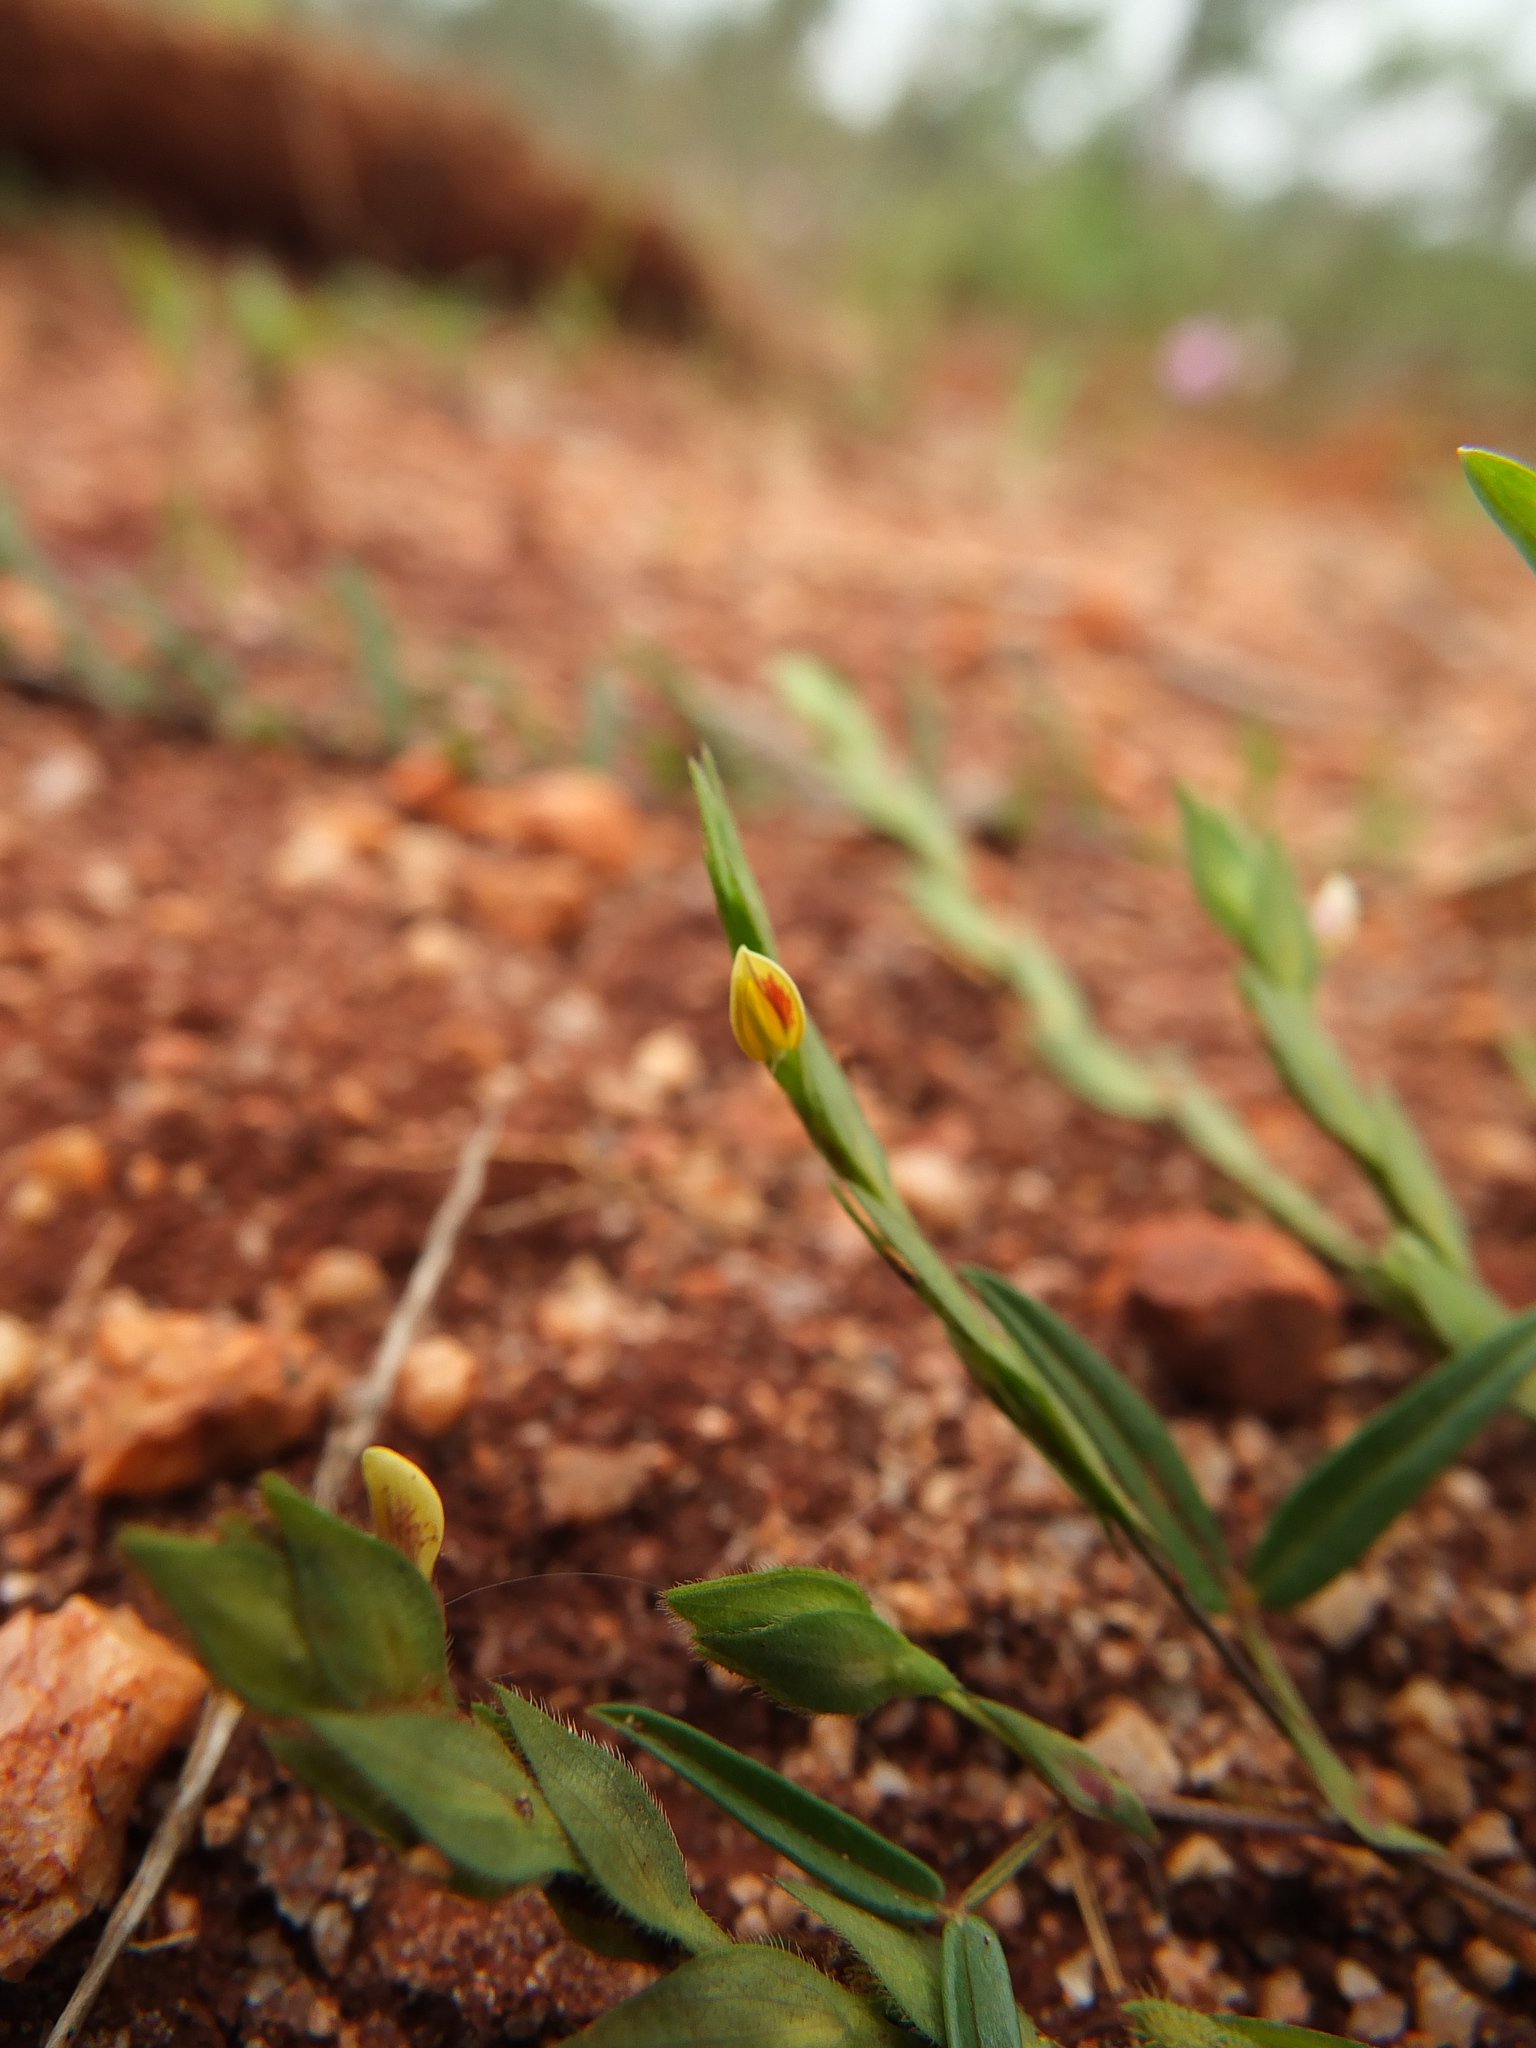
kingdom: Plantae
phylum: Tracheophyta
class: Magnoliopsida
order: Fabales
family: Fabaceae
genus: Zornia
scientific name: Zornia gibbosa
